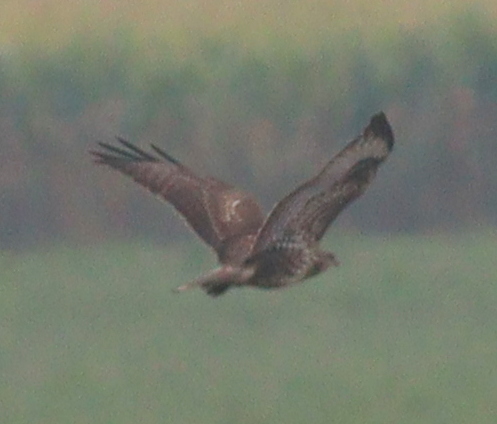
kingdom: Animalia
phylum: Chordata
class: Aves
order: Accipitriformes
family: Accipitridae
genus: Buteo
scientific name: Buteo buteo
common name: Common buzzard
